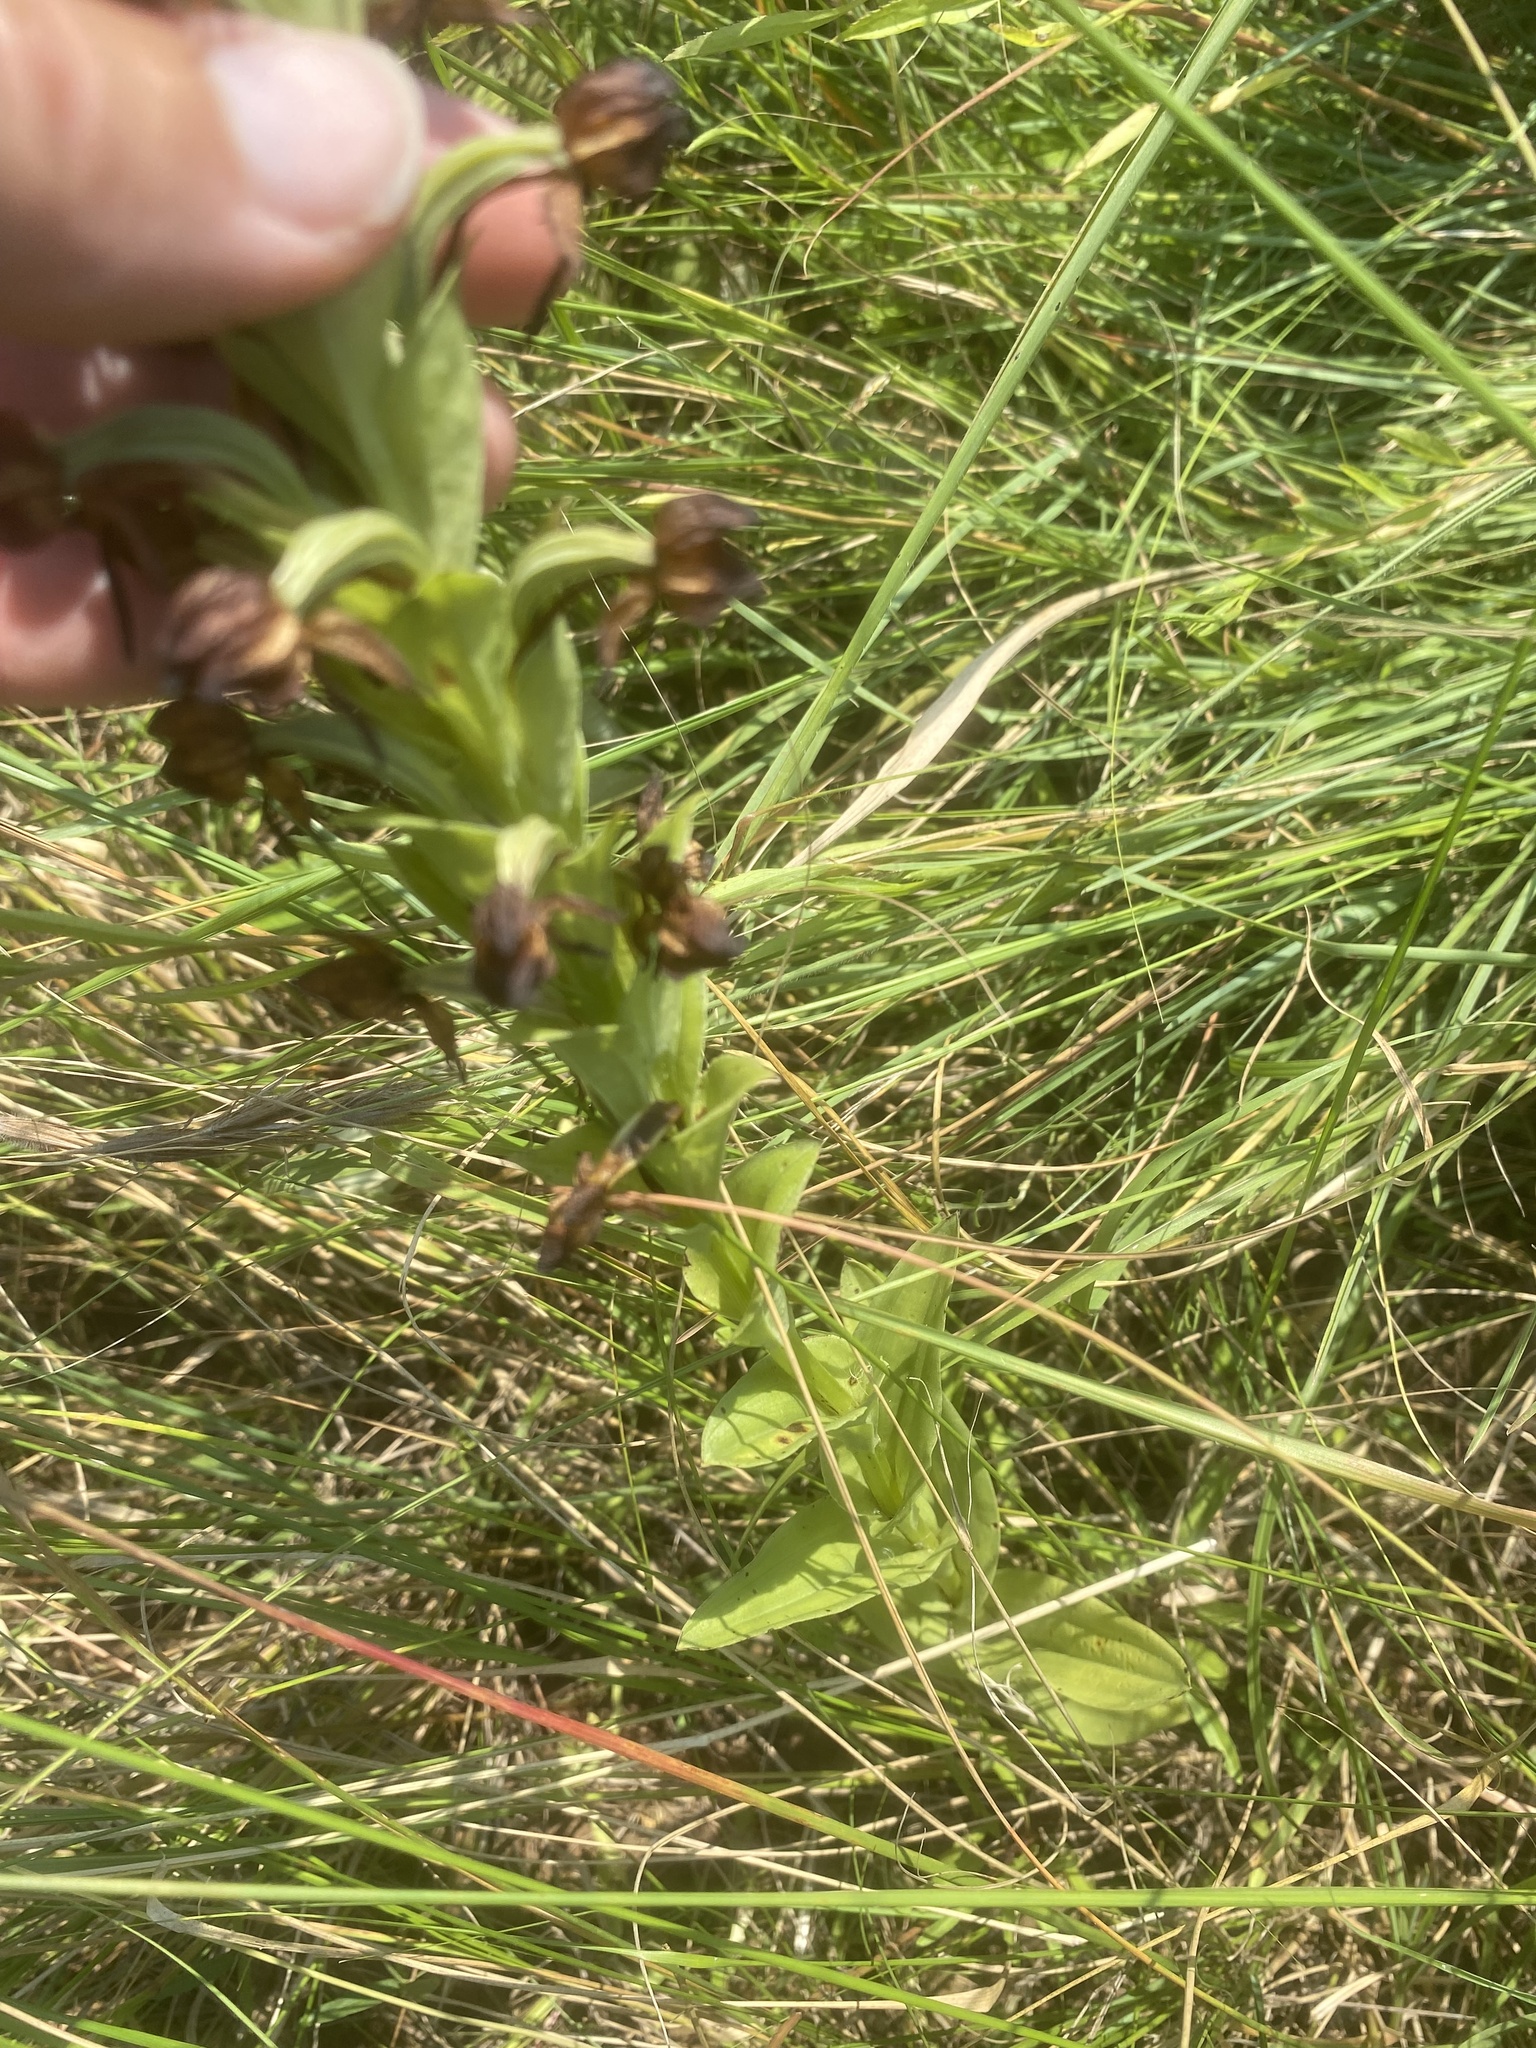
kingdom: Plantae
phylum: Tracheophyta
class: Liliopsida
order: Asparagales
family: Orchidaceae
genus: Habenaria
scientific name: Habenaria epipactidea
